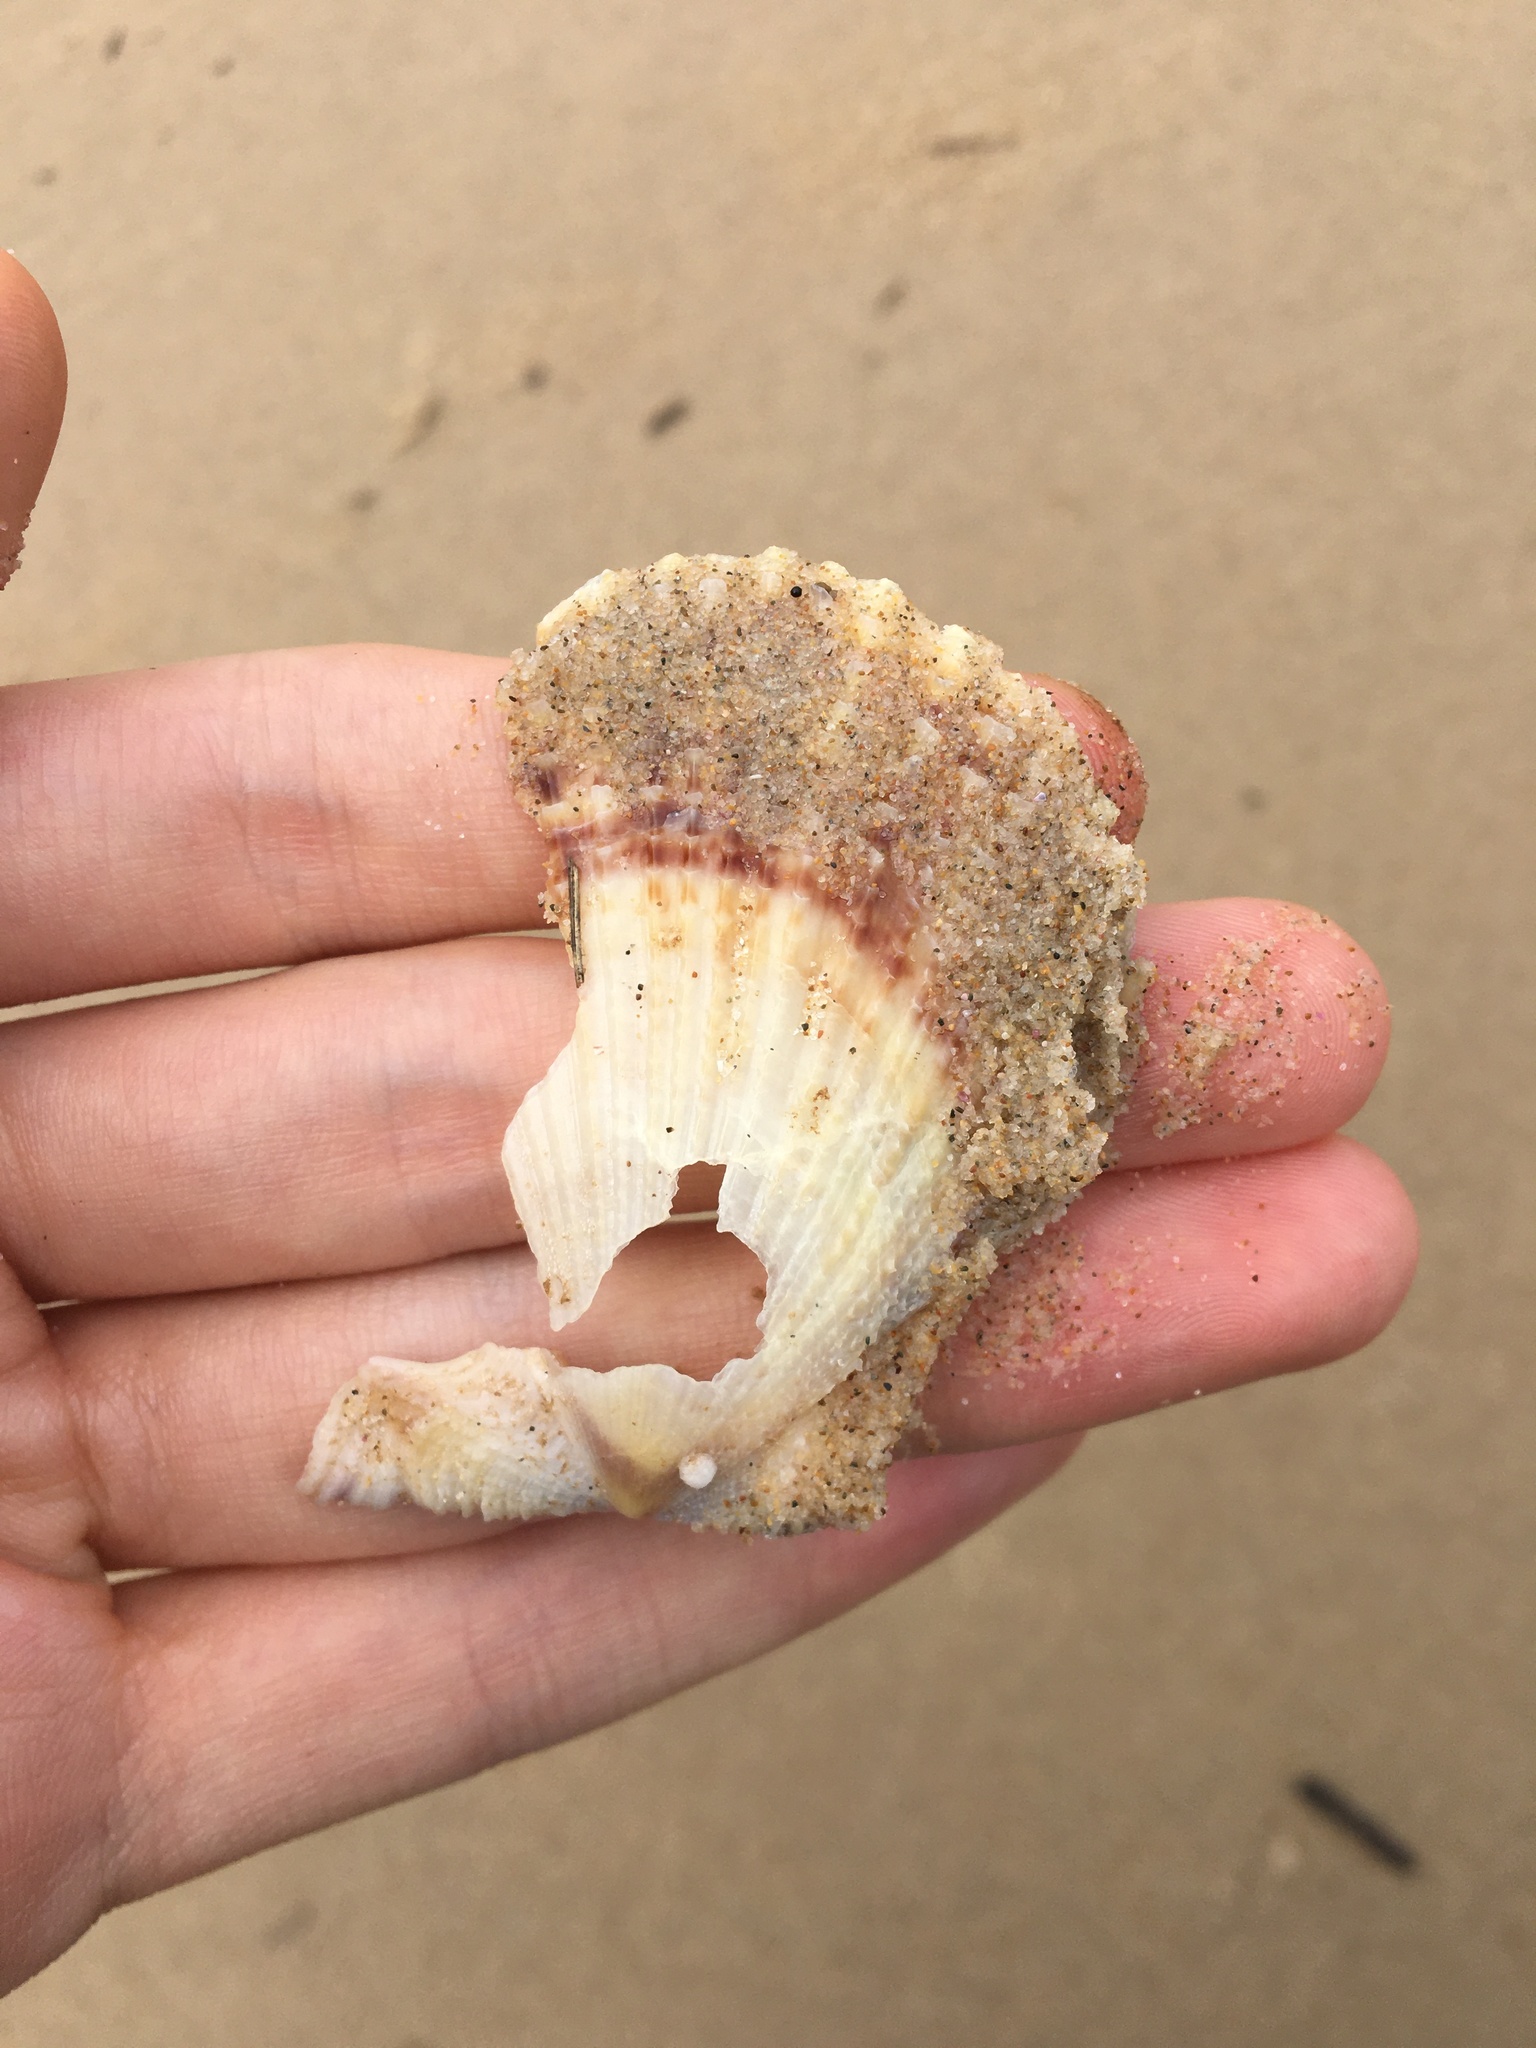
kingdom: Animalia
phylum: Mollusca
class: Bivalvia
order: Pectinida
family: Pectinidae
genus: Scaeochlamys
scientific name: Scaeochlamys livida
